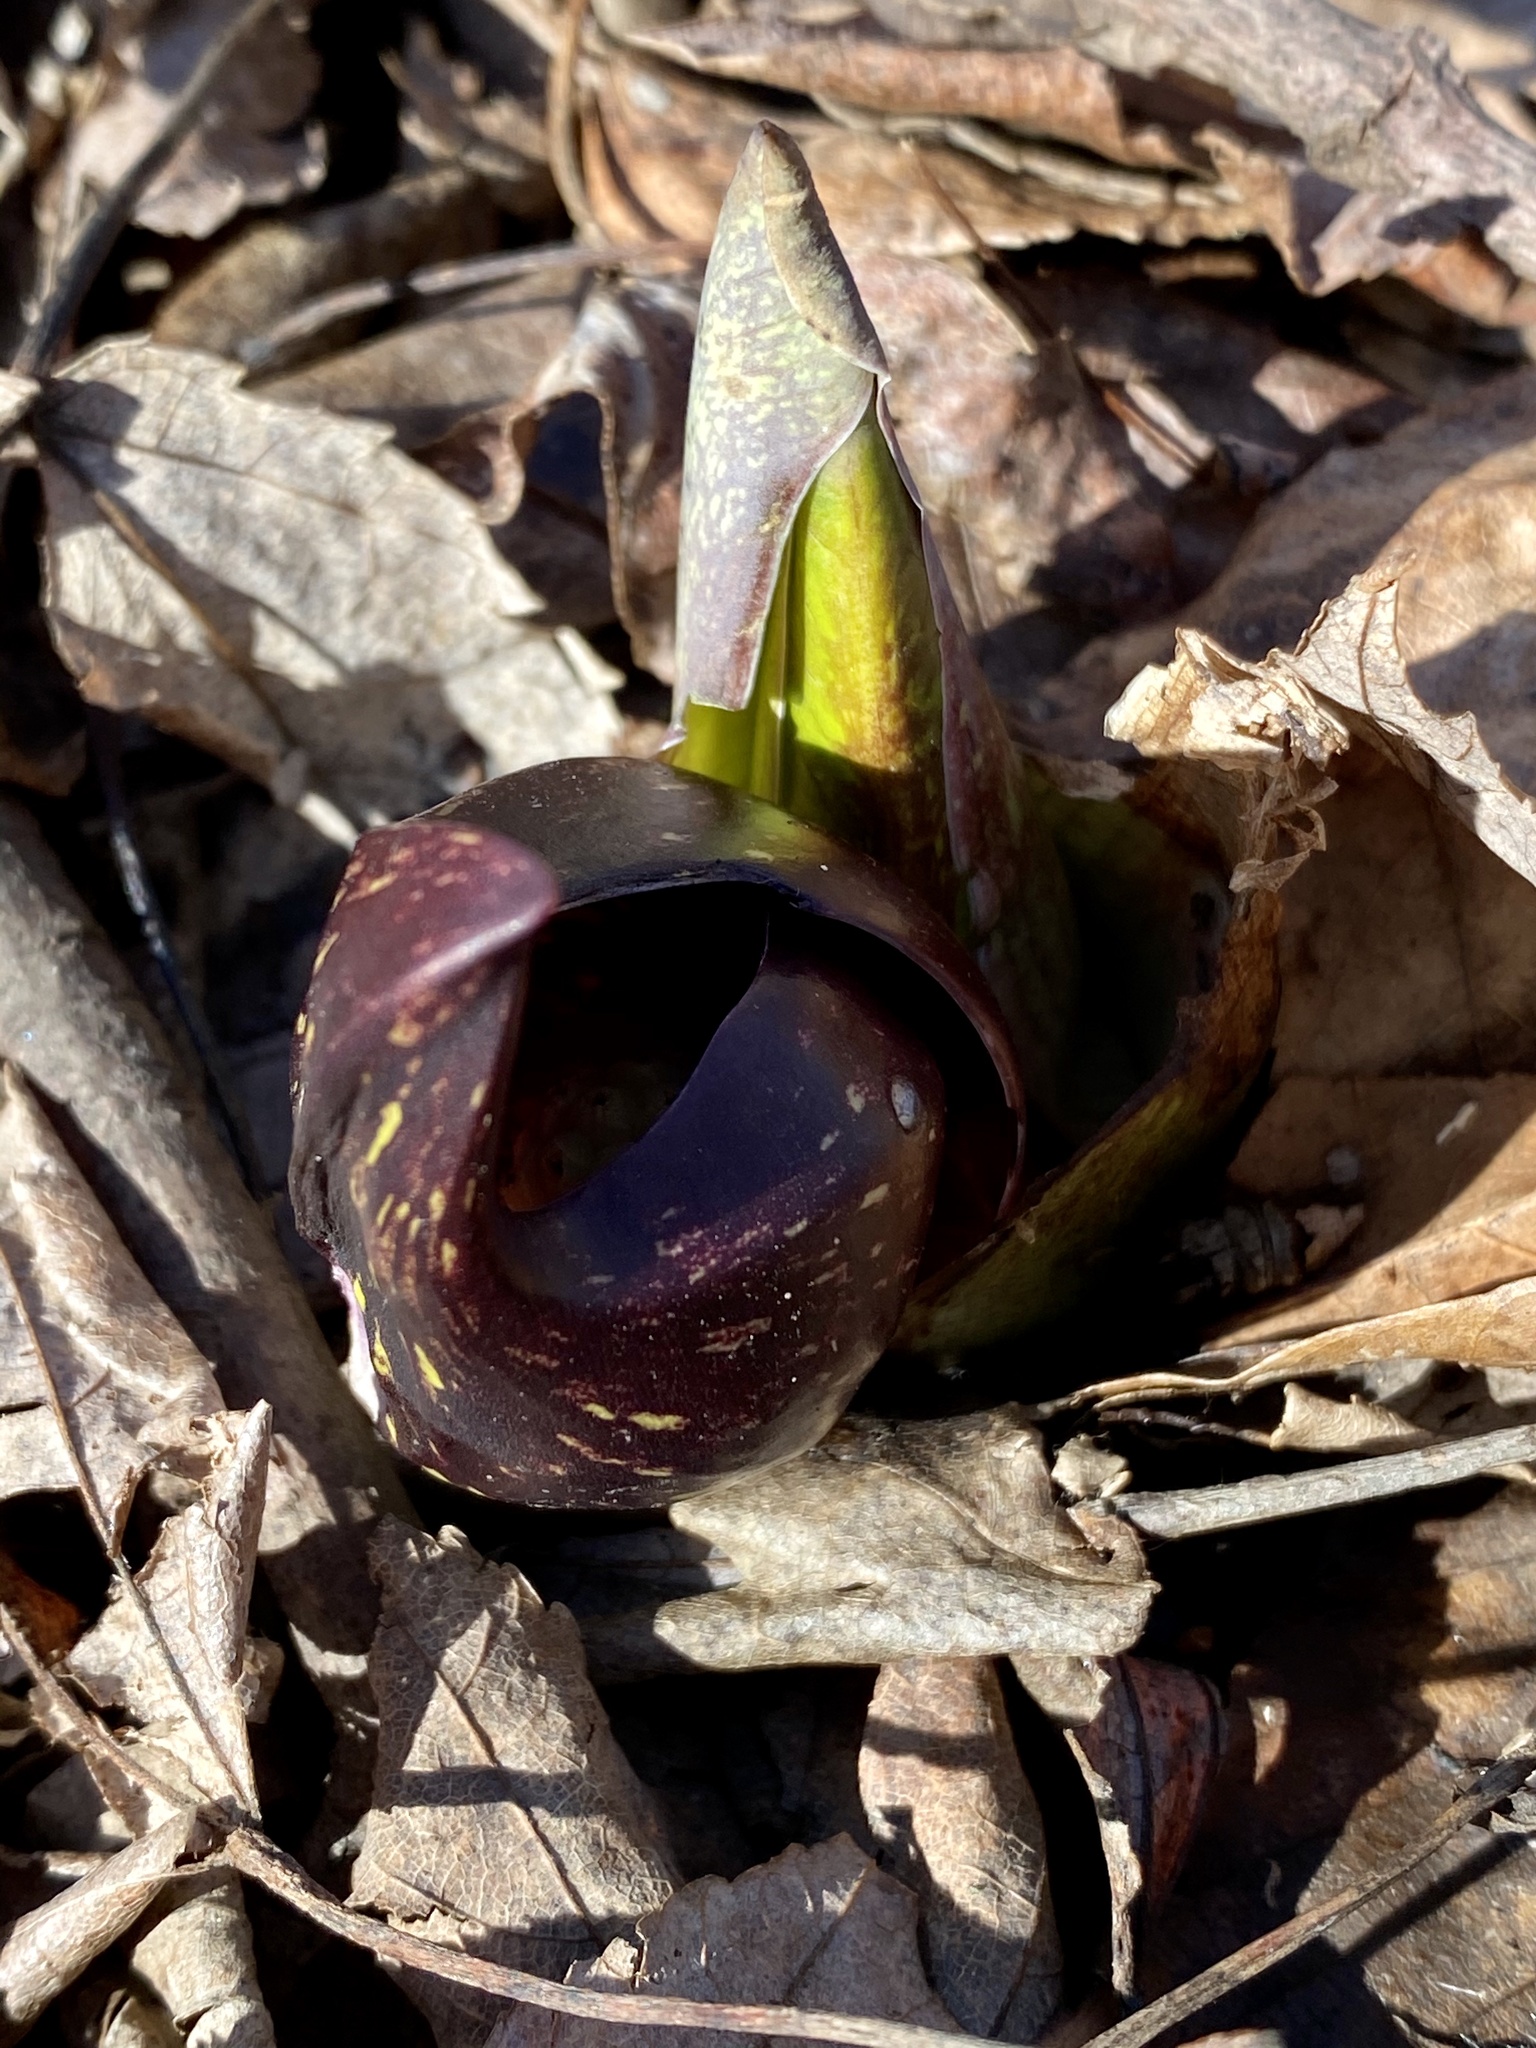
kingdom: Plantae
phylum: Tracheophyta
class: Liliopsida
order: Alismatales
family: Araceae
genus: Symplocarpus
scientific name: Symplocarpus foetidus
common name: Eastern skunk cabbage
